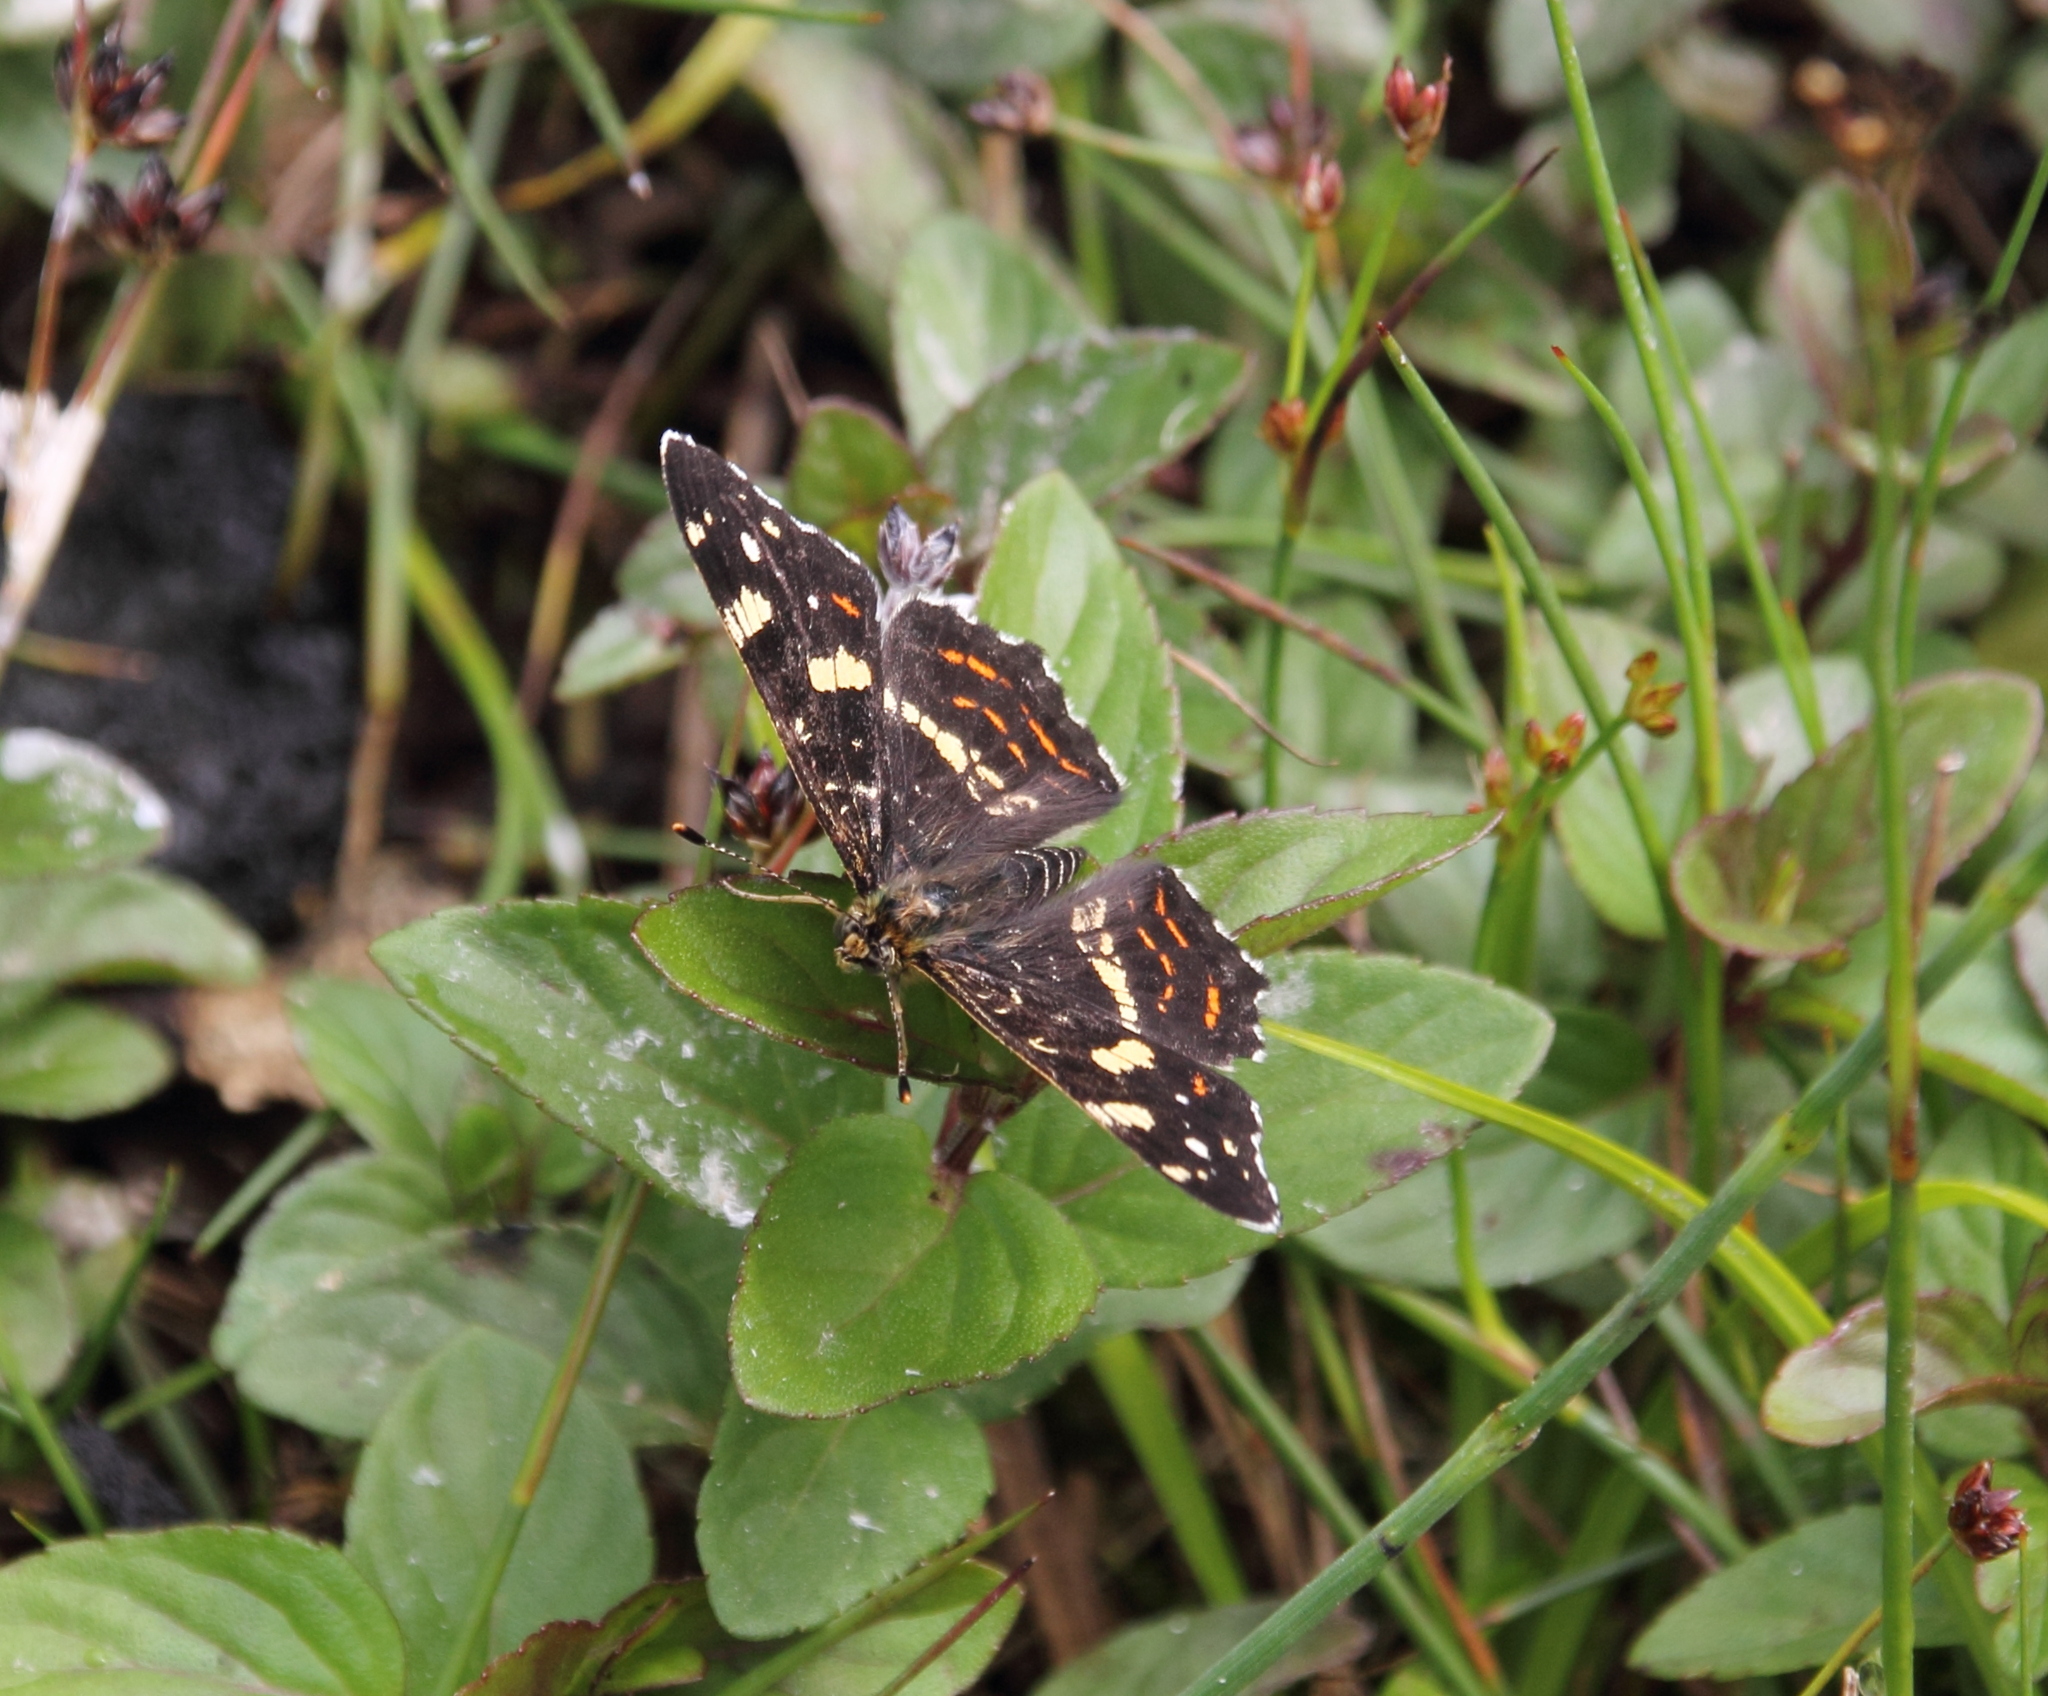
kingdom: Animalia
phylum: Arthropoda
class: Insecta
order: Lepidoptera
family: Nymphalidae
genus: Araschnia
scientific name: Araschnia levana
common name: Map butterfly
